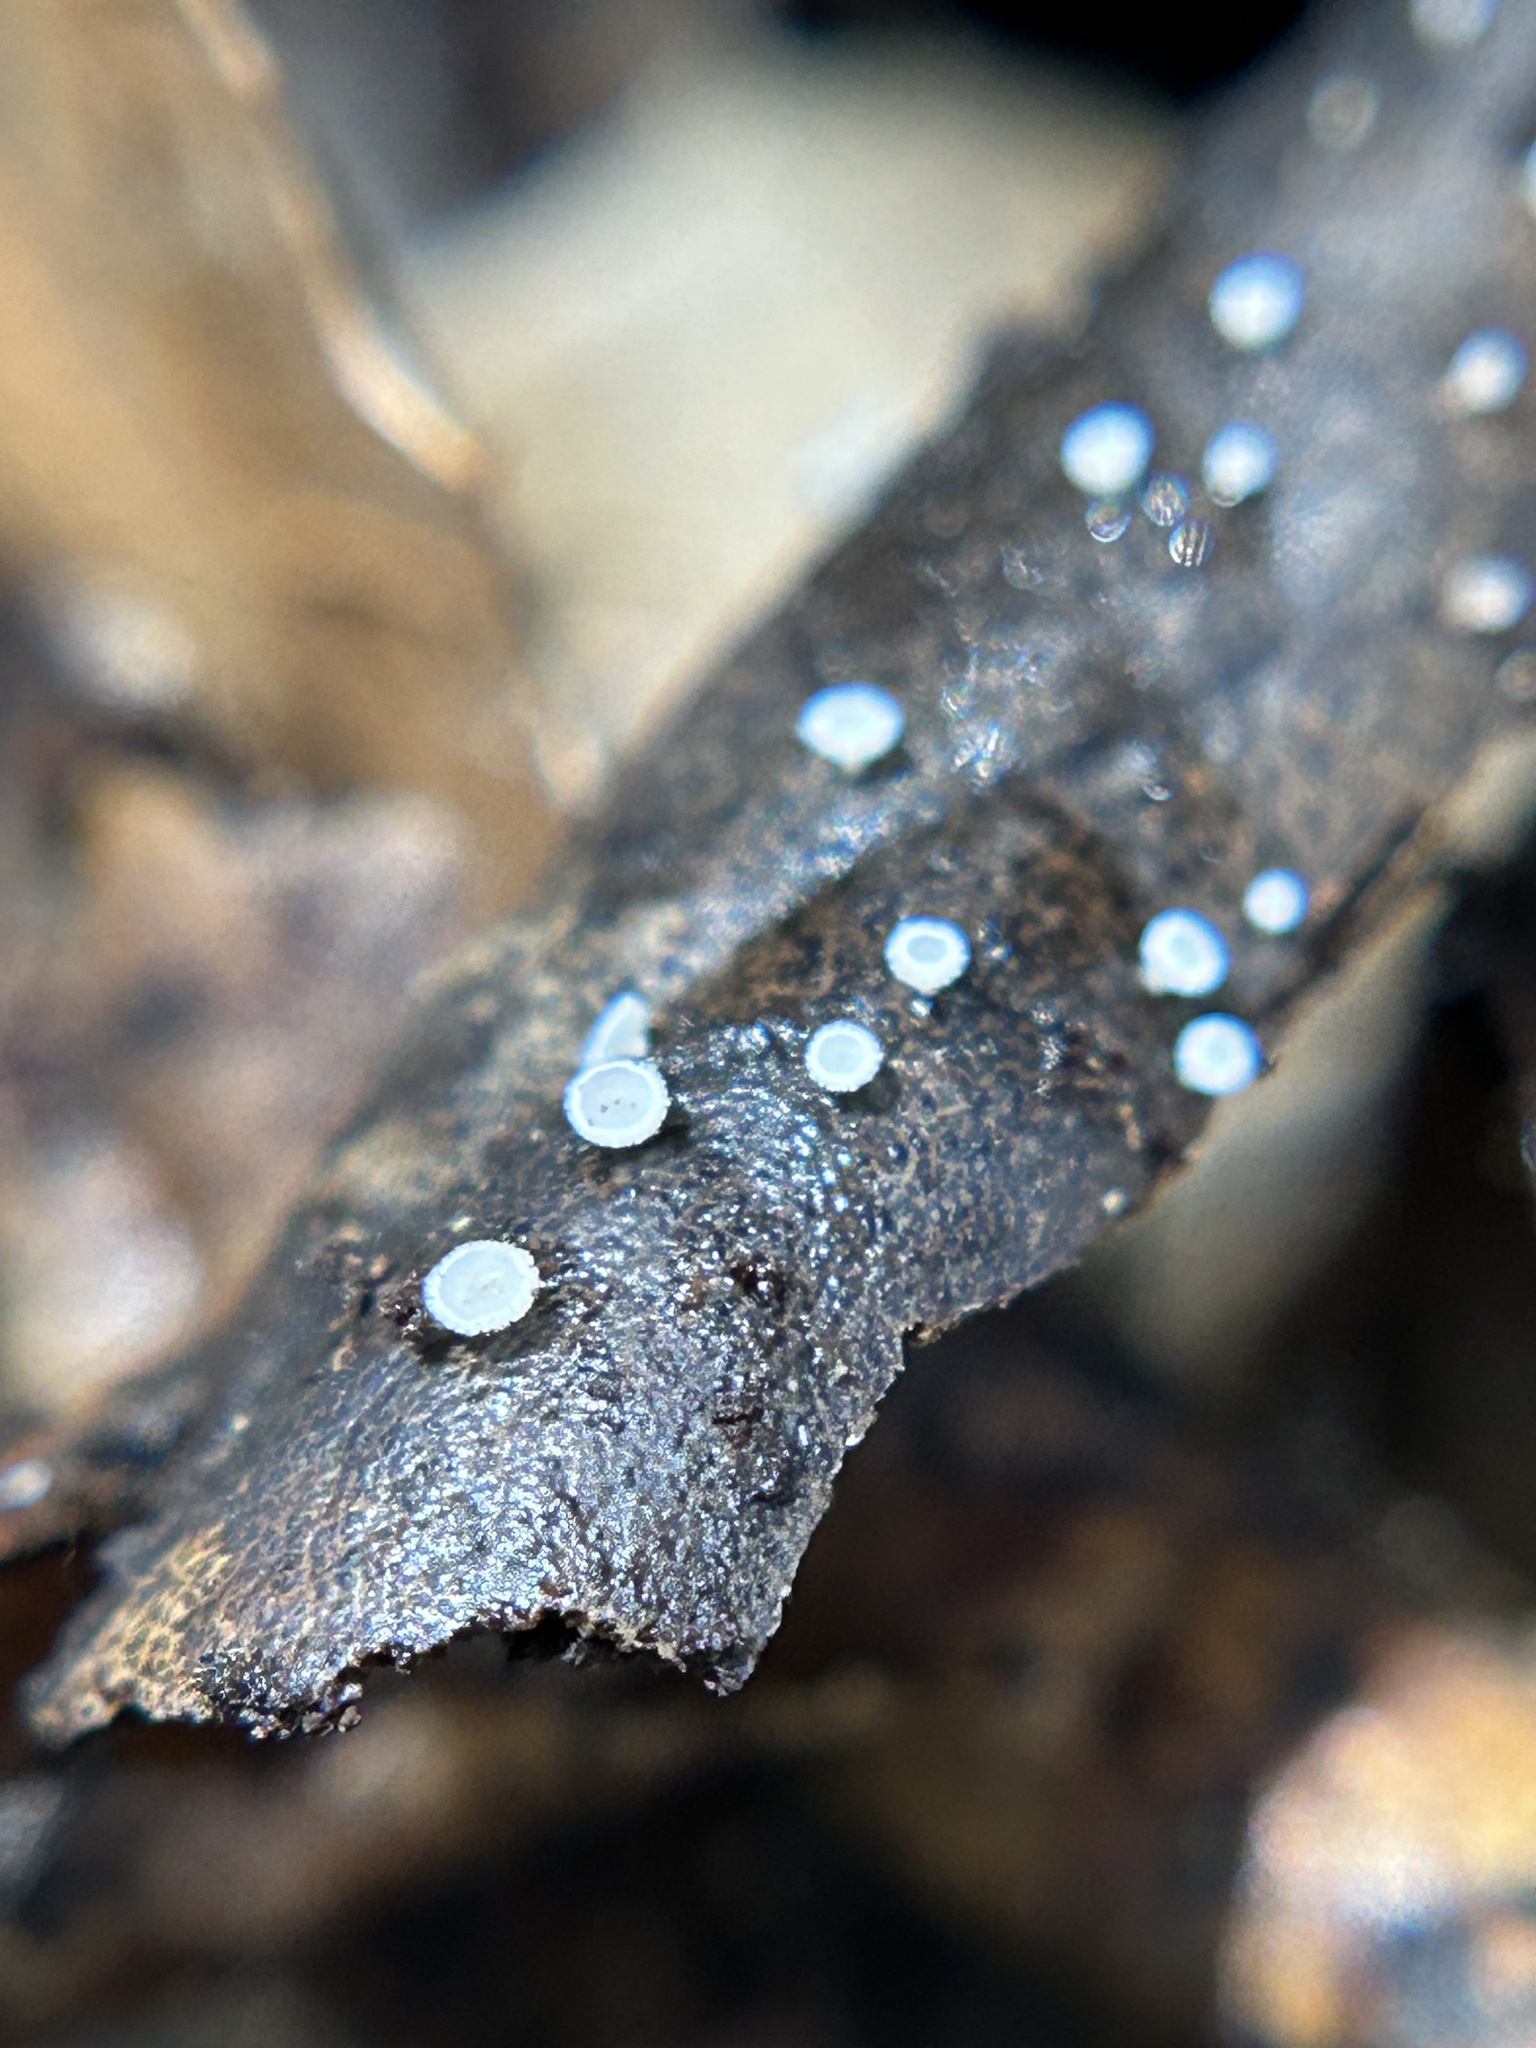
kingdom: Fungi
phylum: Ascomycota
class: Leotiomycetes
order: Helotiales
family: Lachnaceae
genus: Lachnum
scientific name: Lachnum virgineum
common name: Snowy disco
